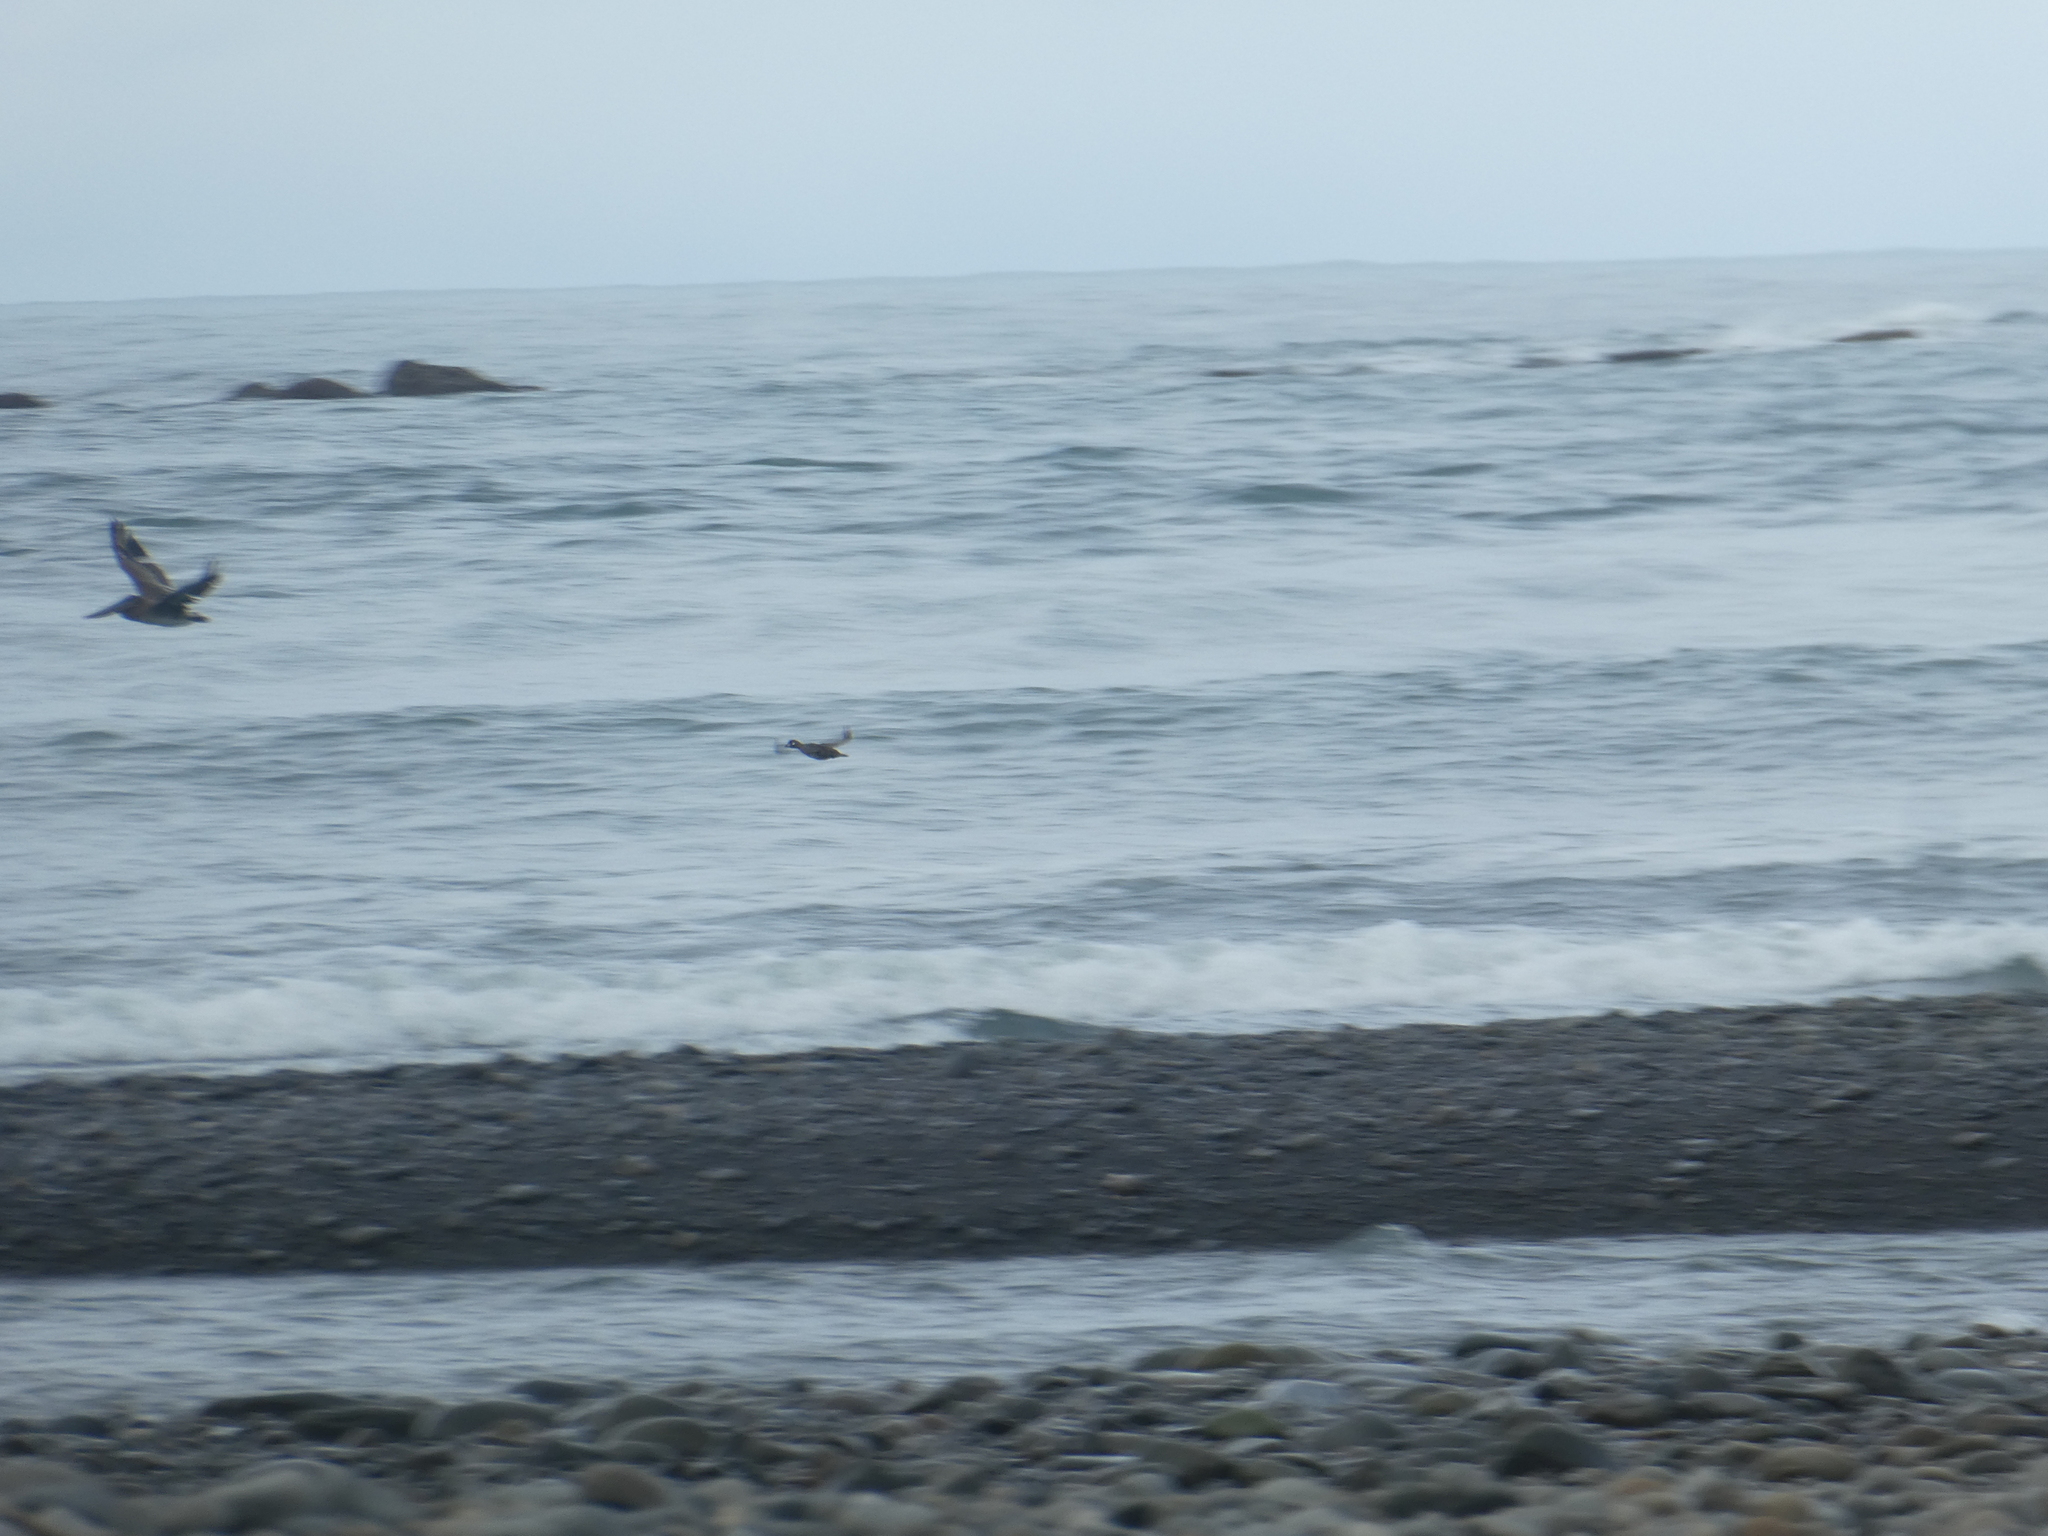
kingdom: Animalia
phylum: Chordata
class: Aves
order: Anseriformes
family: Anatidae
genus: Histrionicus
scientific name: Histrionicus histrionicus
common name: Harlequin duck
